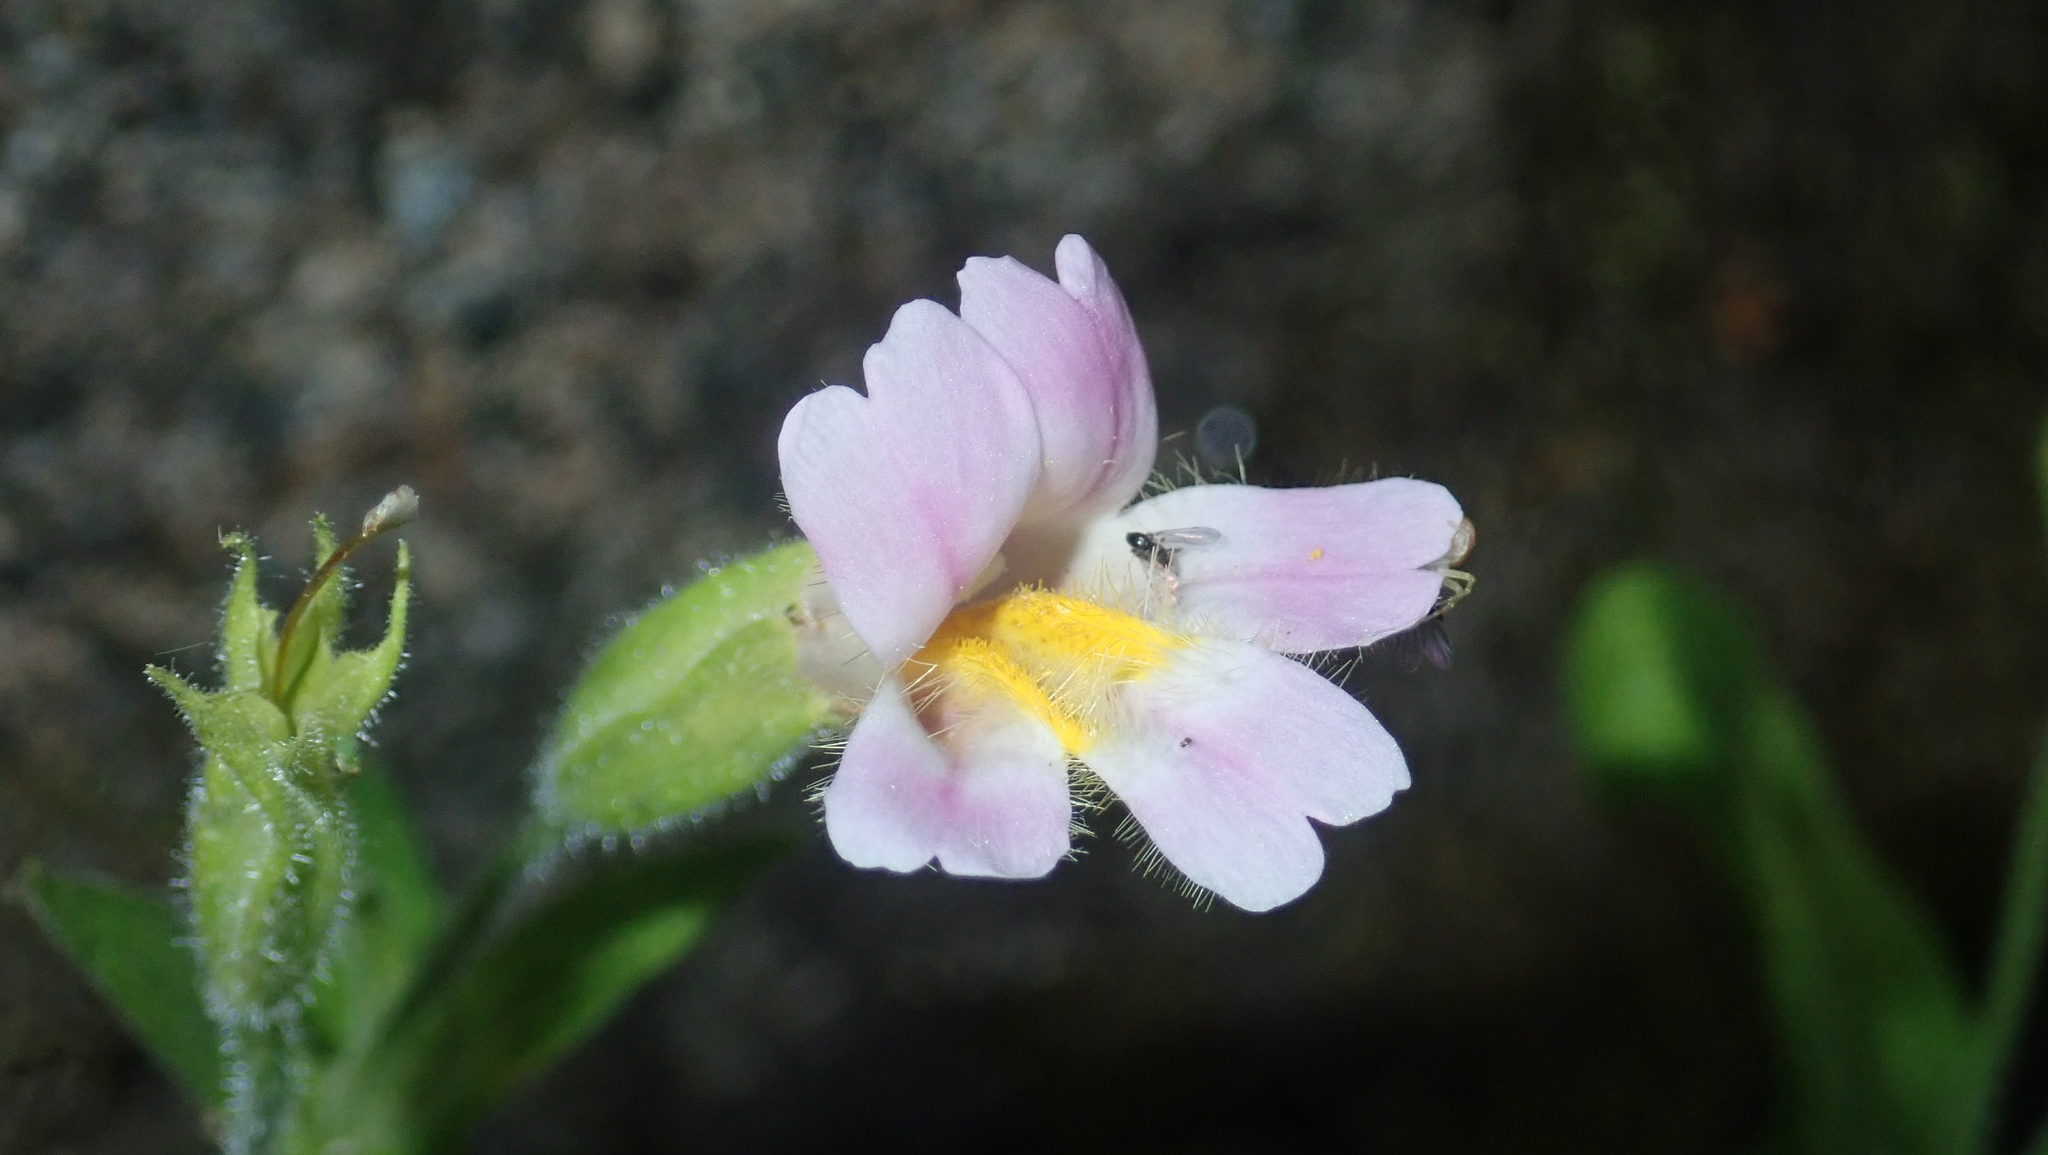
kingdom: Plantae
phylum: Tracheophyta
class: Magnoliopsida
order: Lamiales
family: Phrymaceae
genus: Erythranthe
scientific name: Erythranthe erubescens
